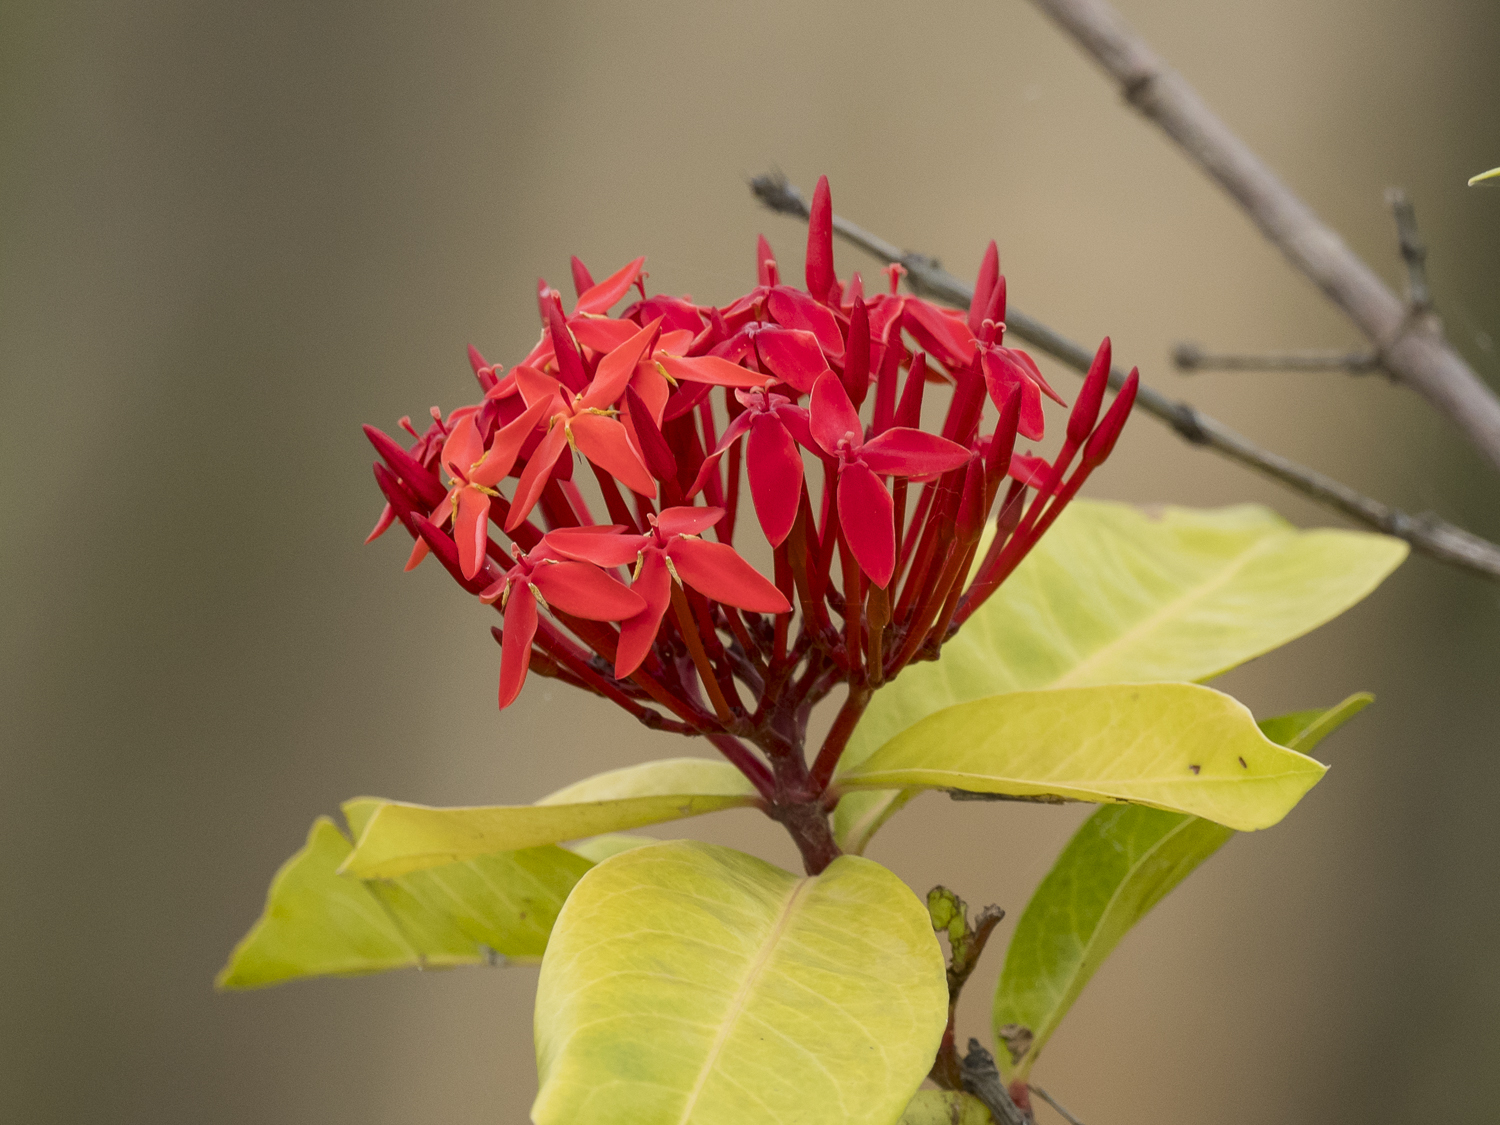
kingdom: Plantae
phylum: Tracheophyta
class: Magnoliopsida
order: Gentianales
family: Rubiaceae
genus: Ixora
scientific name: Ixora coccinea
